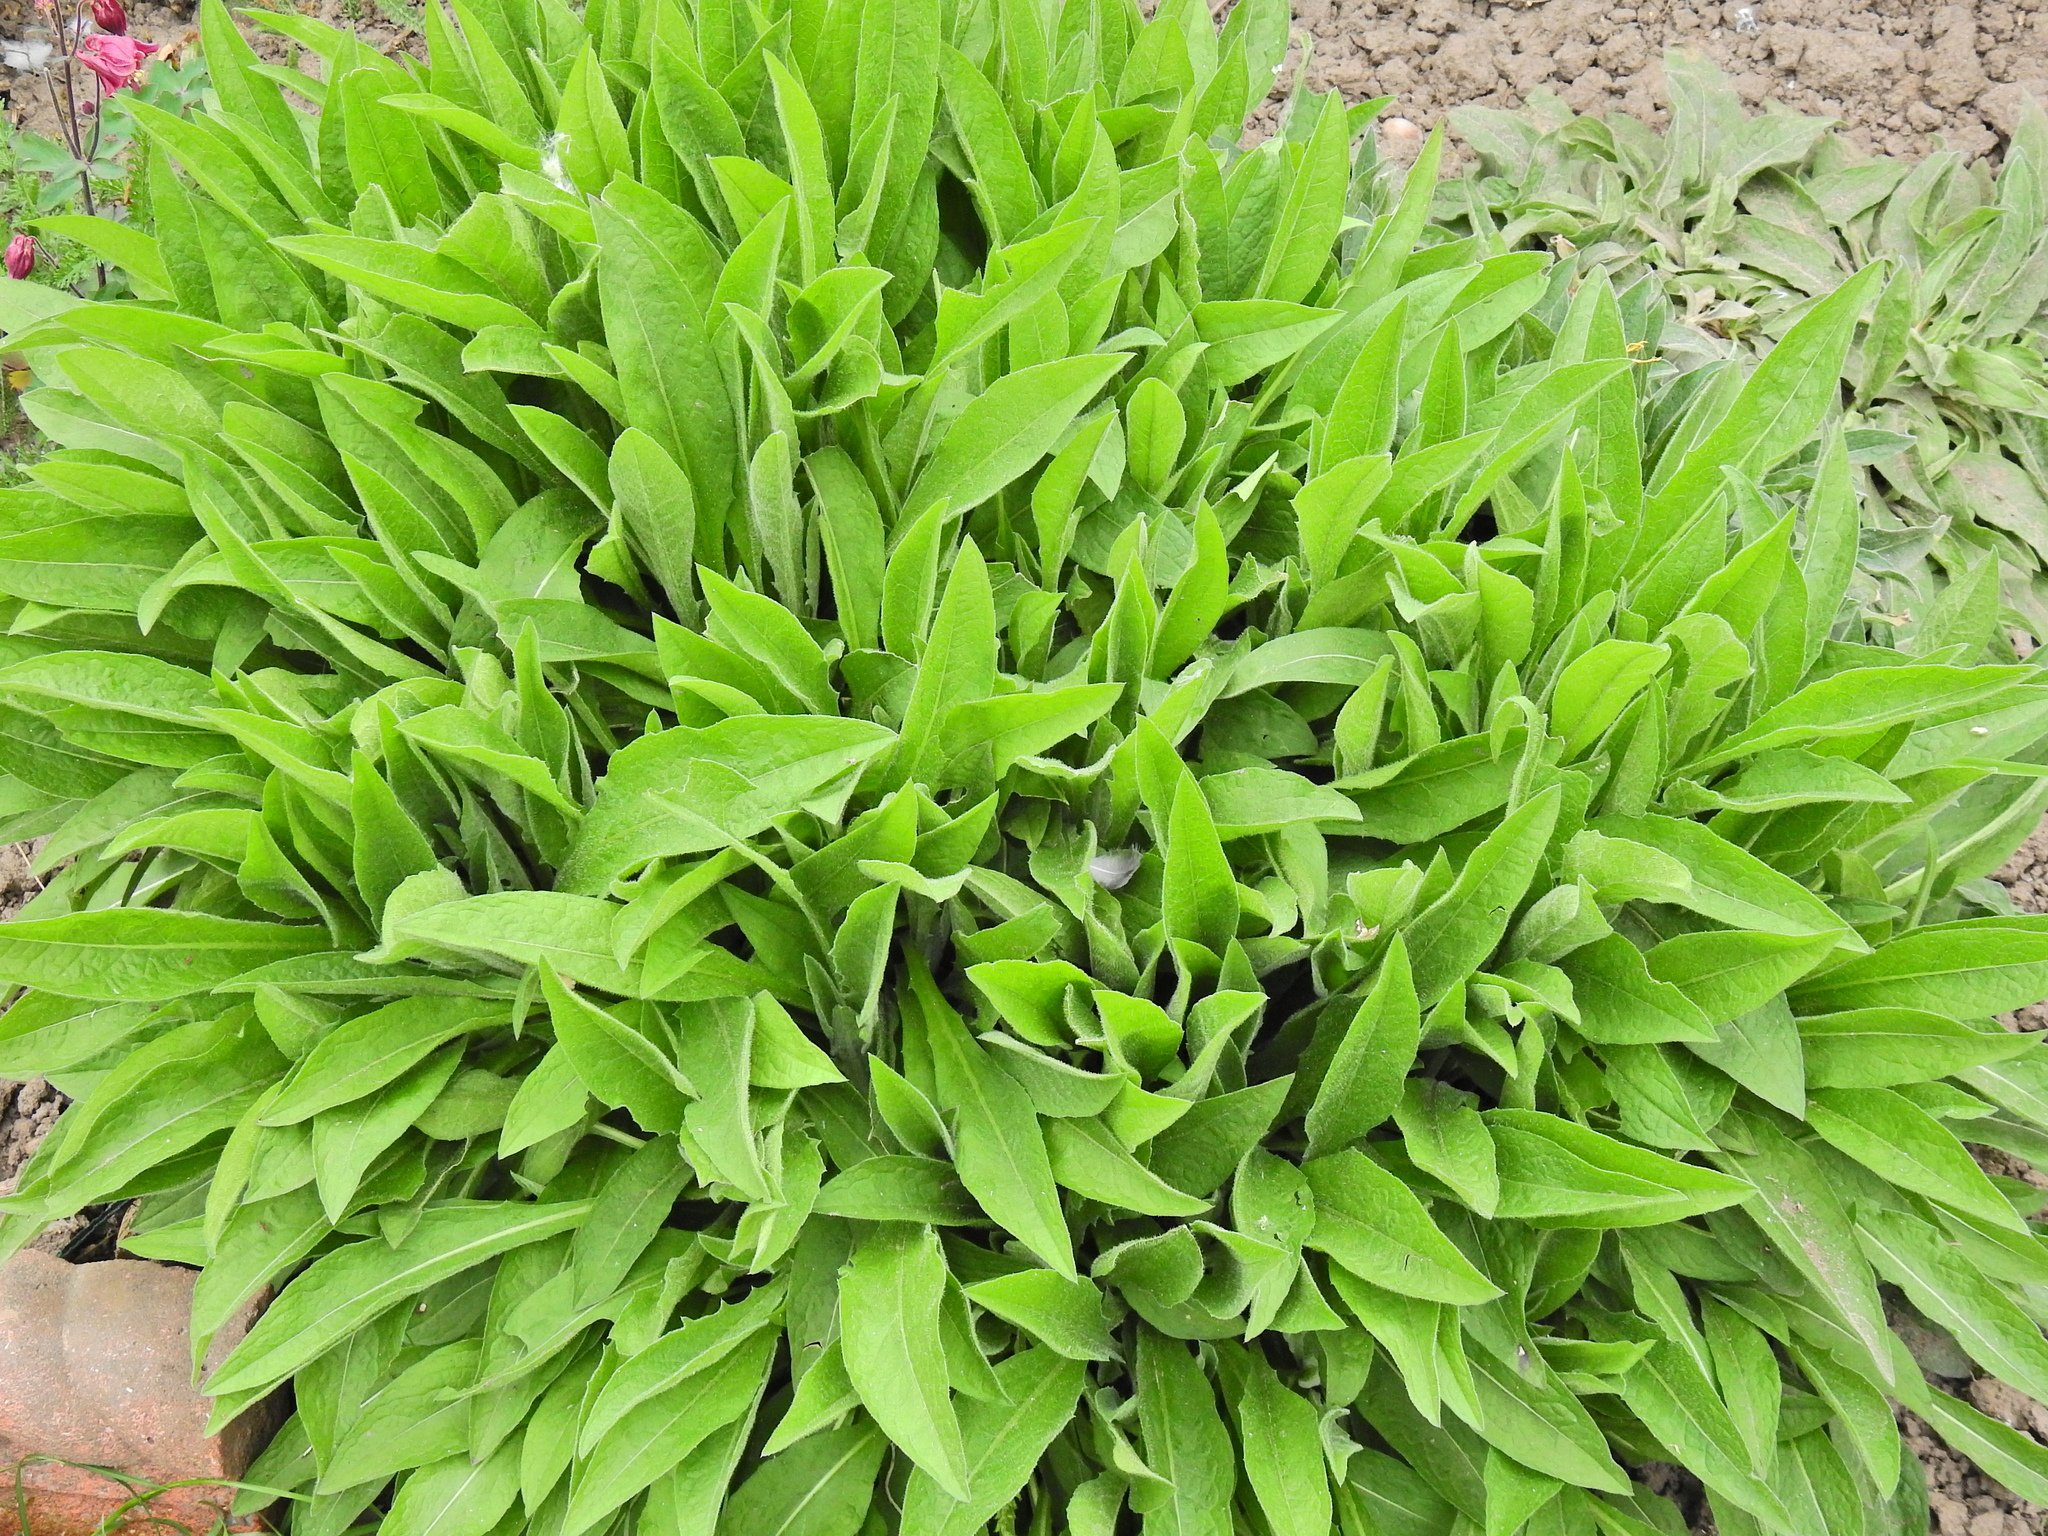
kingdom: Plantae
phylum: Tracheophyta
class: Magnoliopsida
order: Asterales
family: Asteraceae
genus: Centaurea
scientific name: Centaurea nigra
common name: Lesser knapweed
